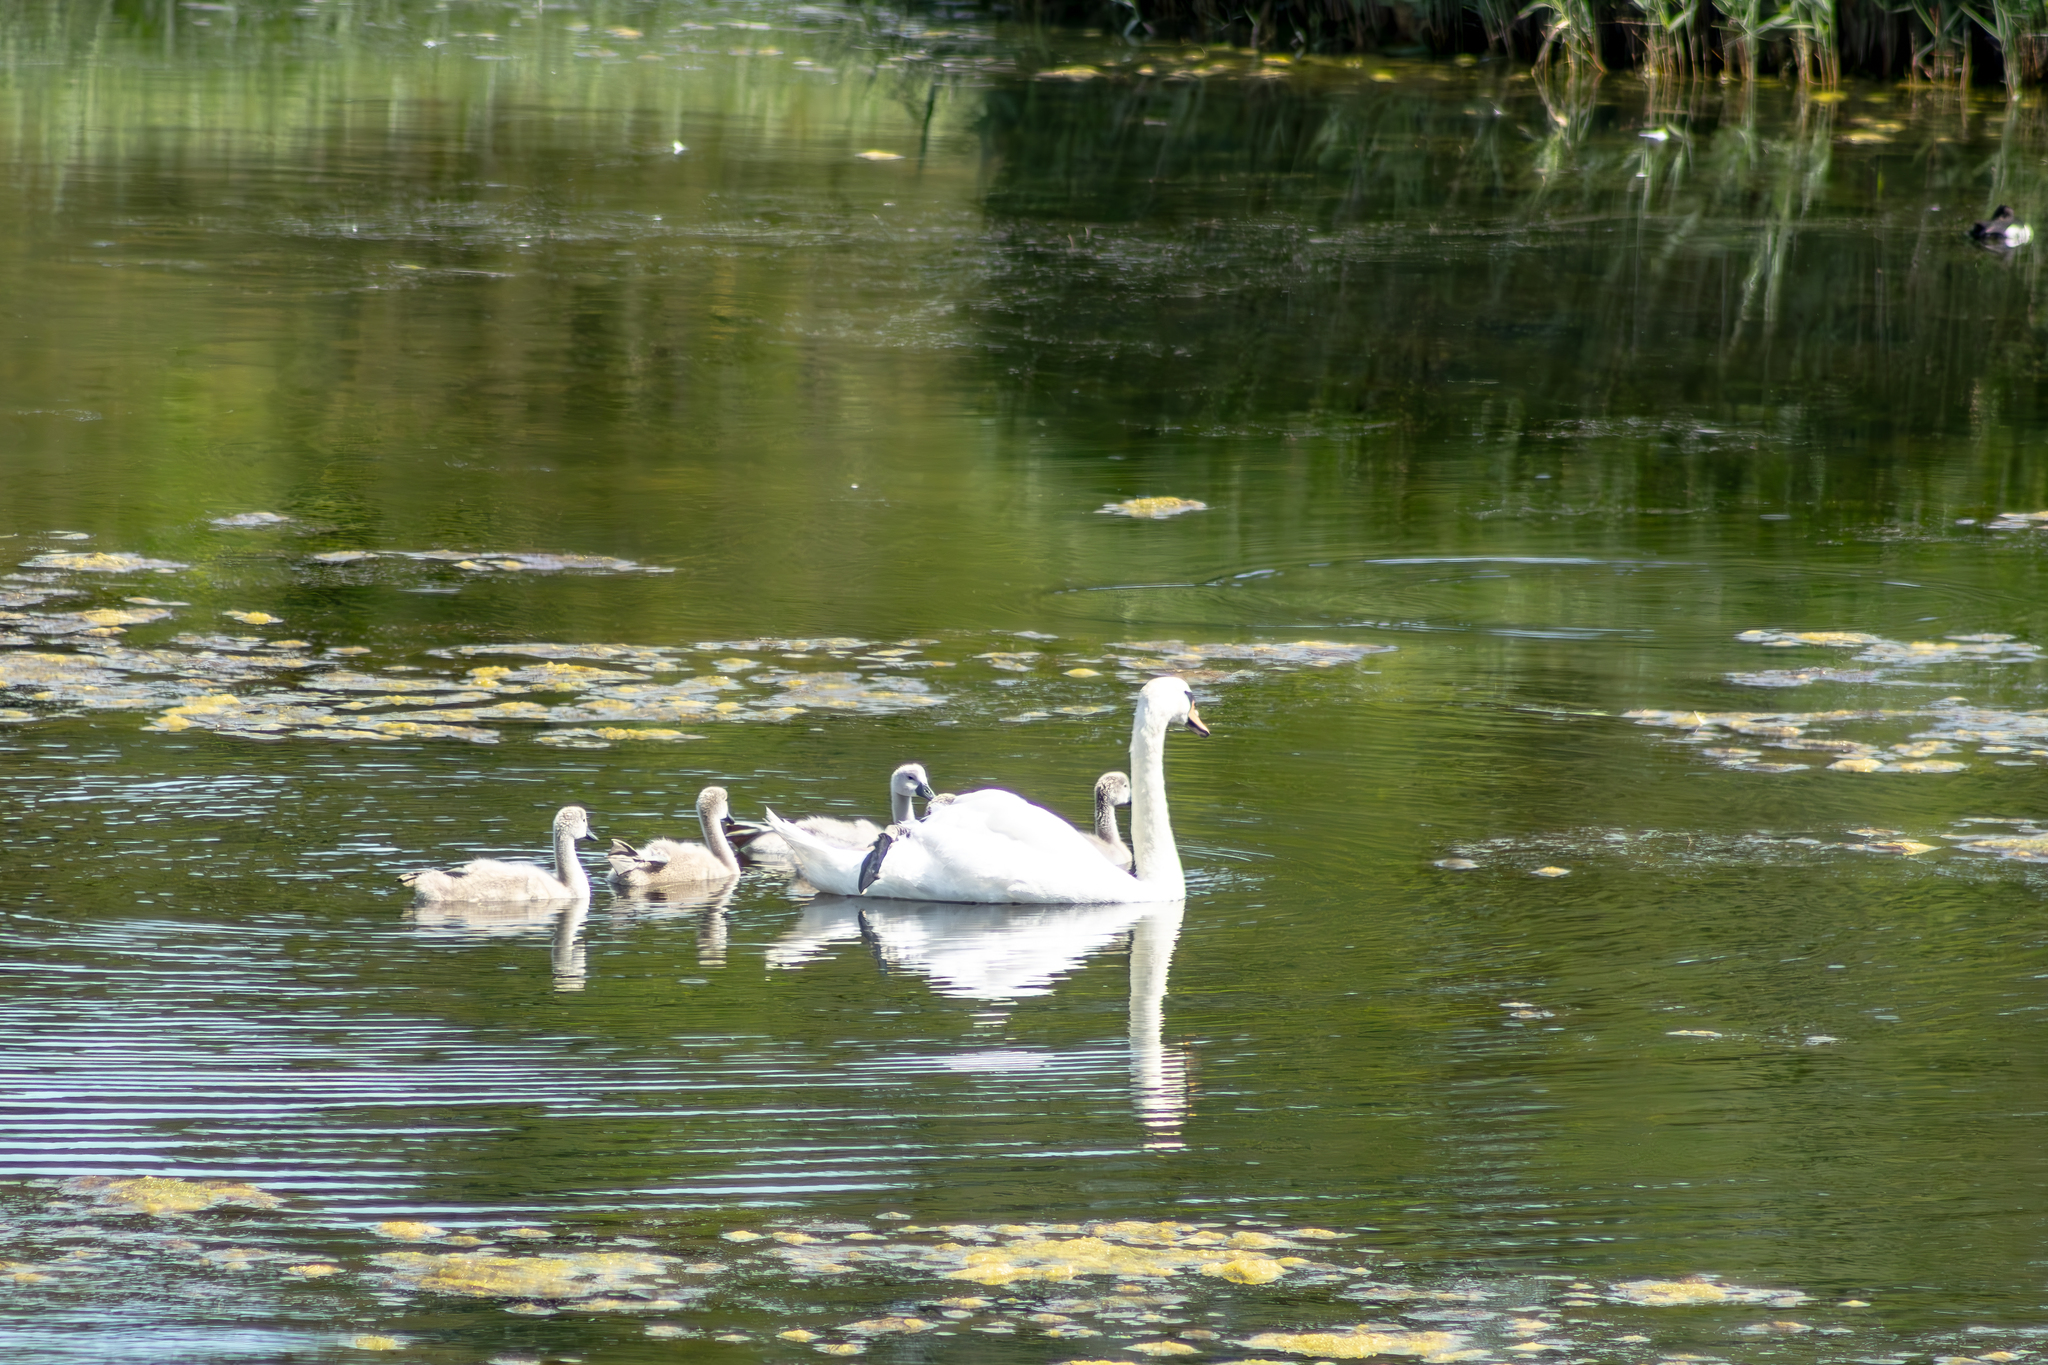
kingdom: Animalia
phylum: Chordata
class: Aves
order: Anseriformes
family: Anatidae
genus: Cygnus
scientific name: Cygnus olor
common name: Mute swan
